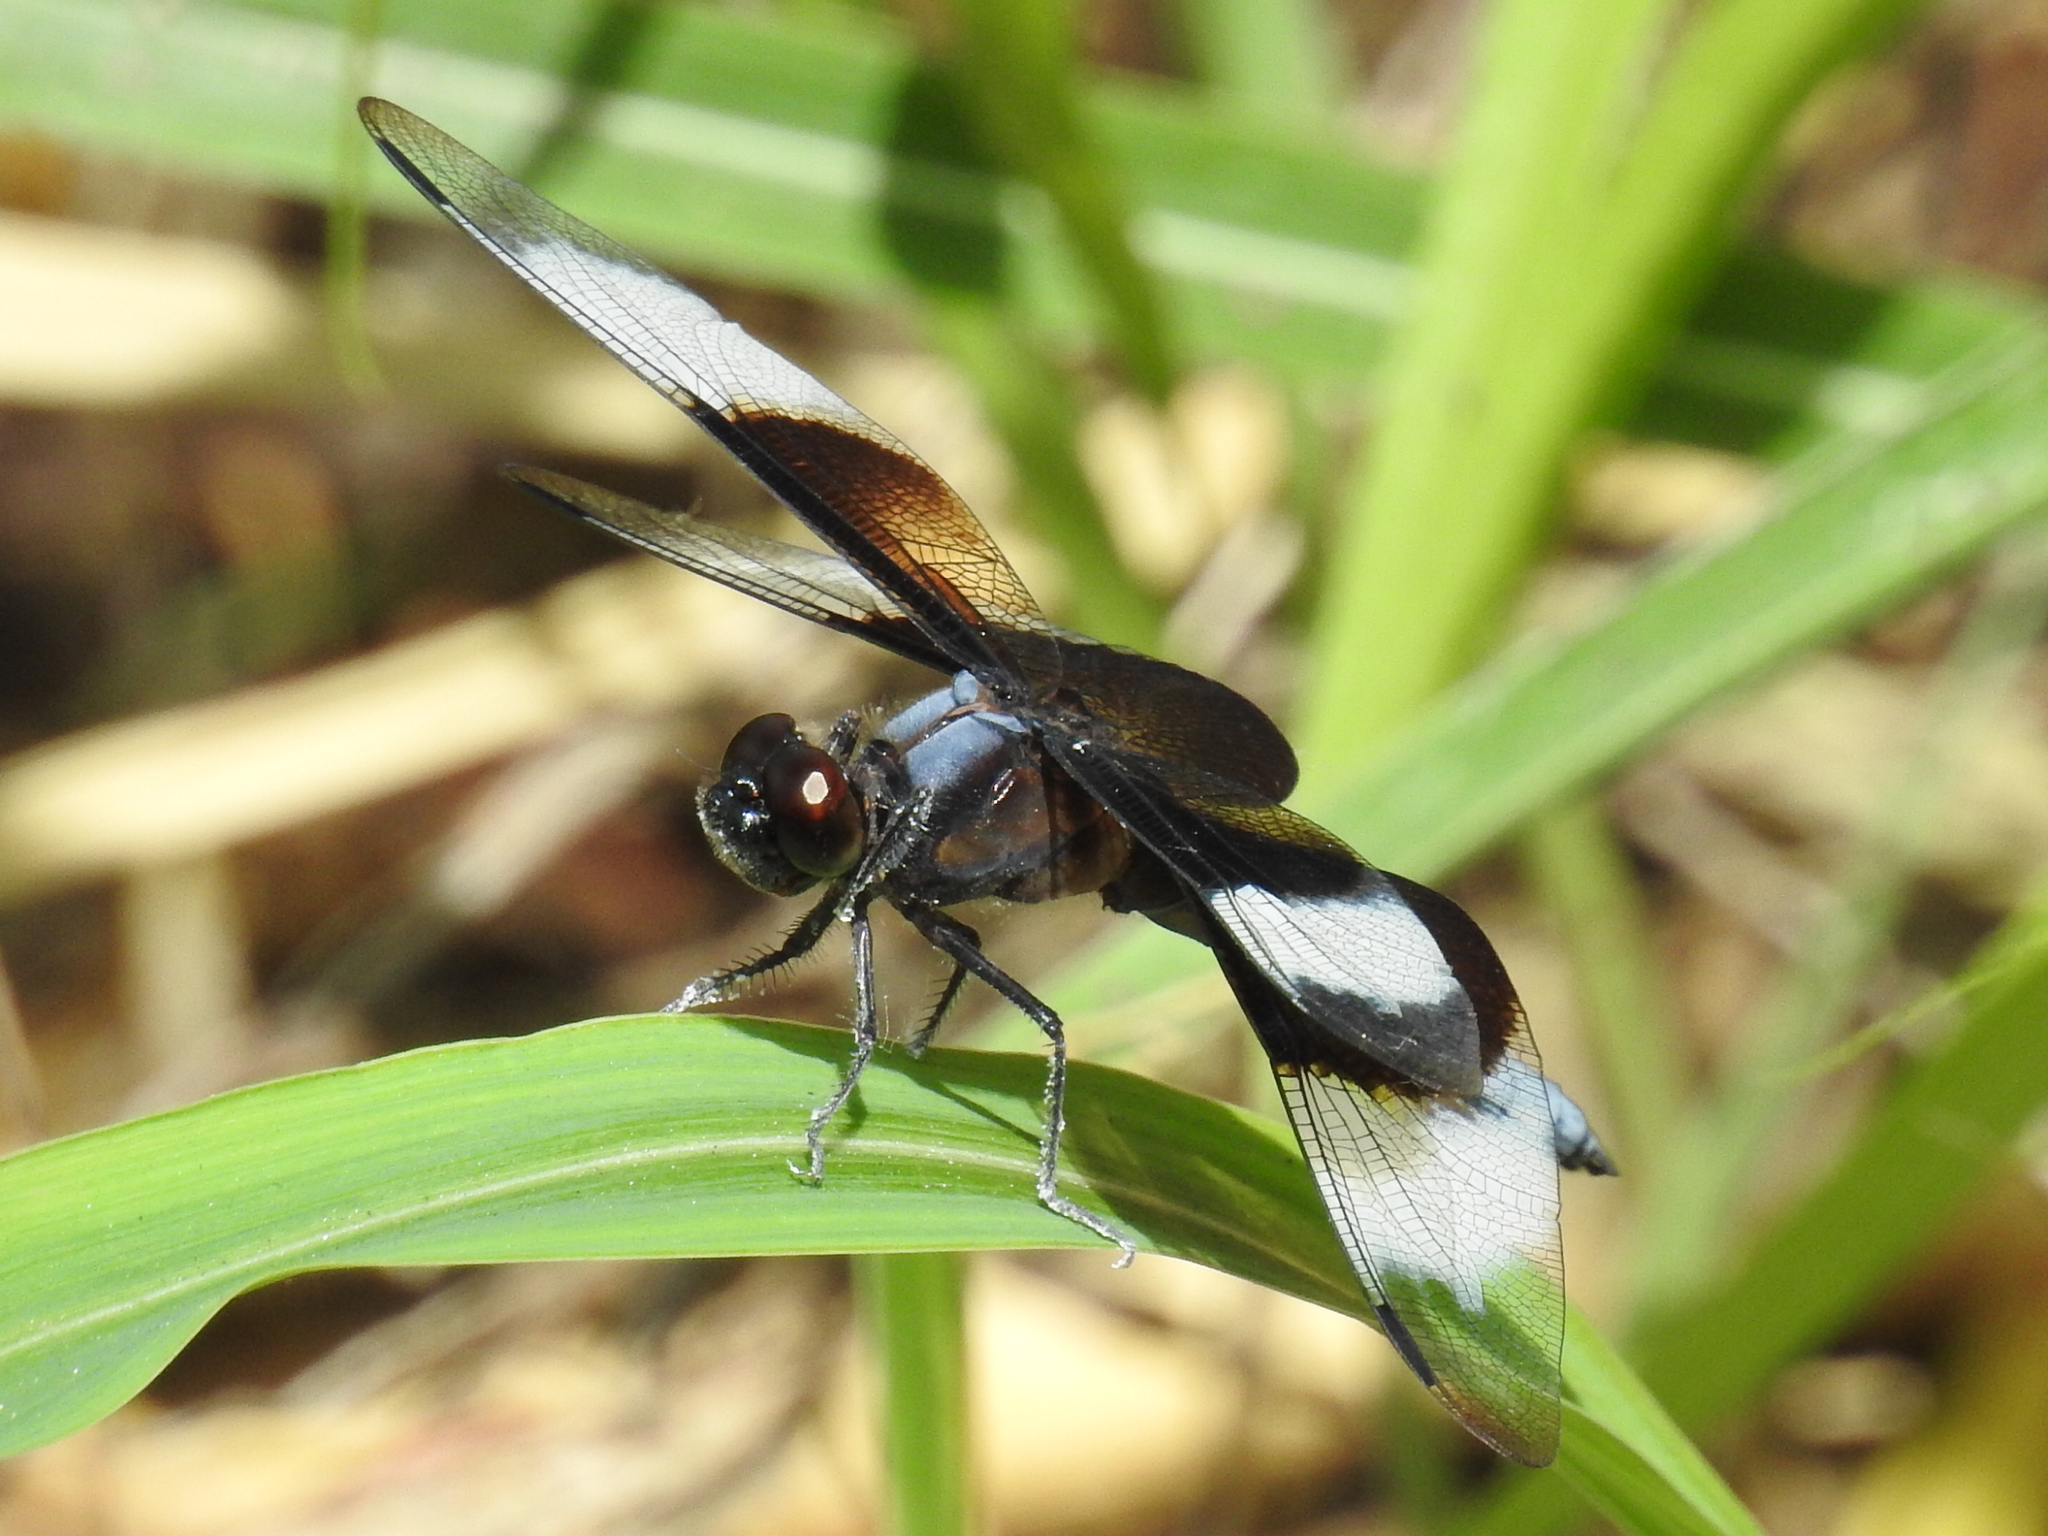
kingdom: Animalia
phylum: Arthropoda
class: Insecta
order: Odonata
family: Libellulidae
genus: Libellula
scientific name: Libellula luctuosa
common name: Widow skimmer
